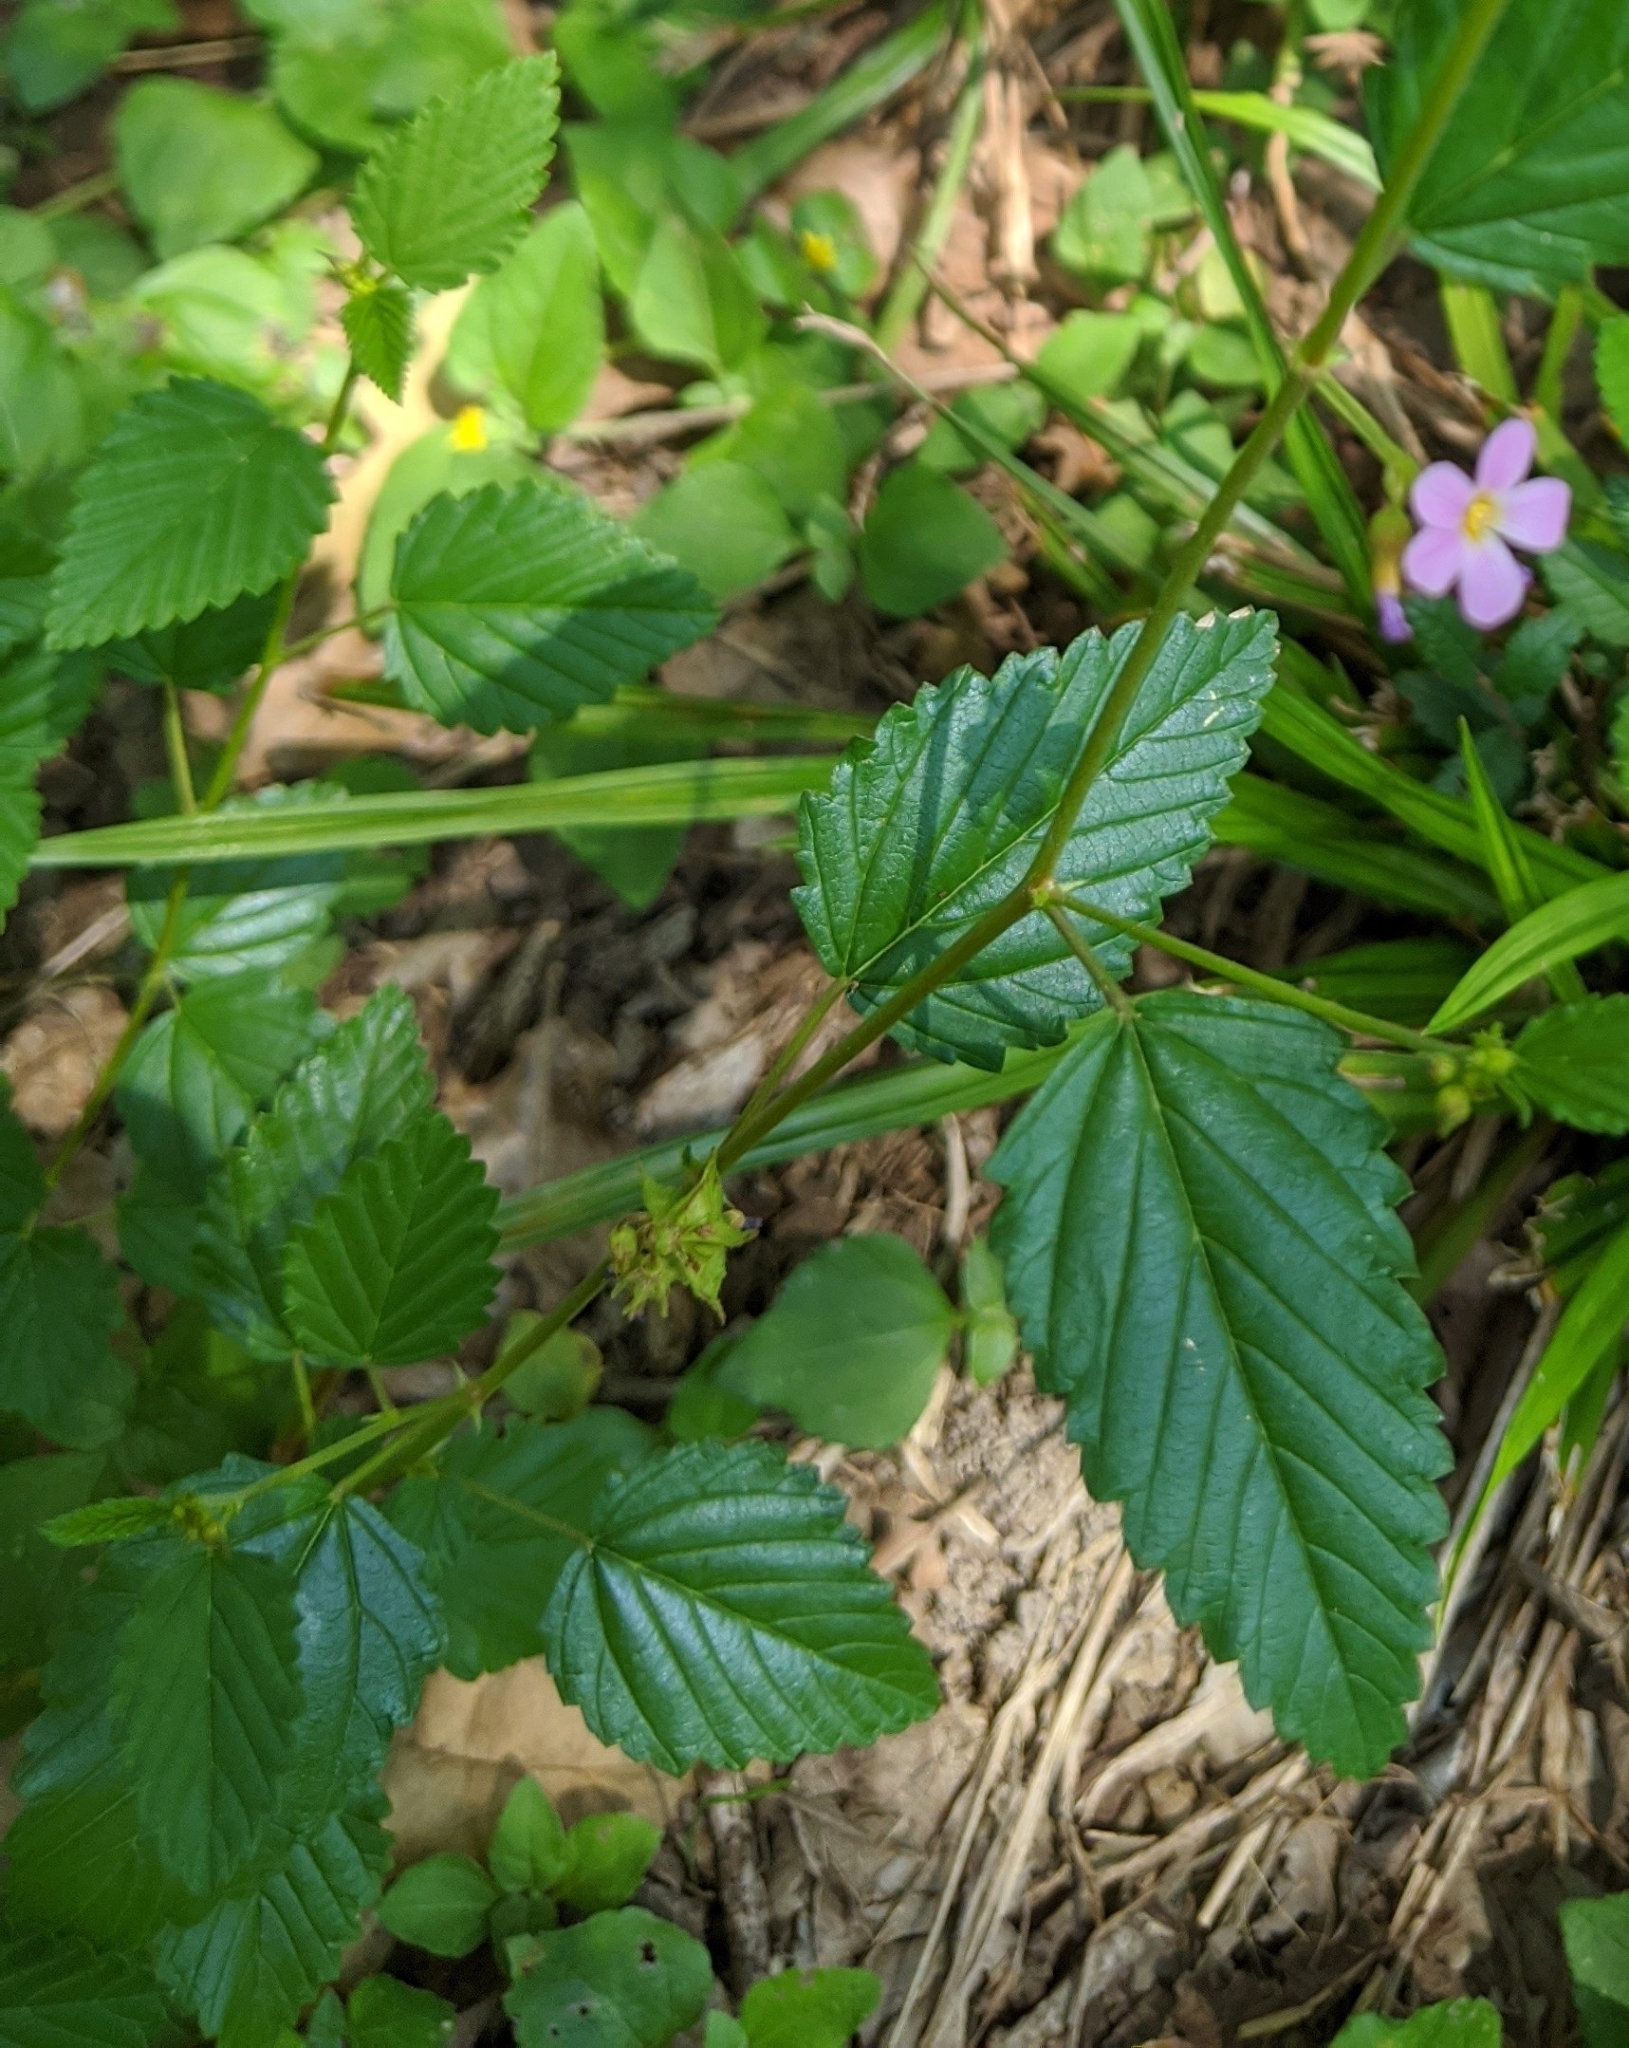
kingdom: Plantae
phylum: Tracheophyta
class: Magnoliopsida
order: Malvales
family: Malvaceae
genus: Melochia
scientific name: Melochia pyramidata
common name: Pyramidflower
